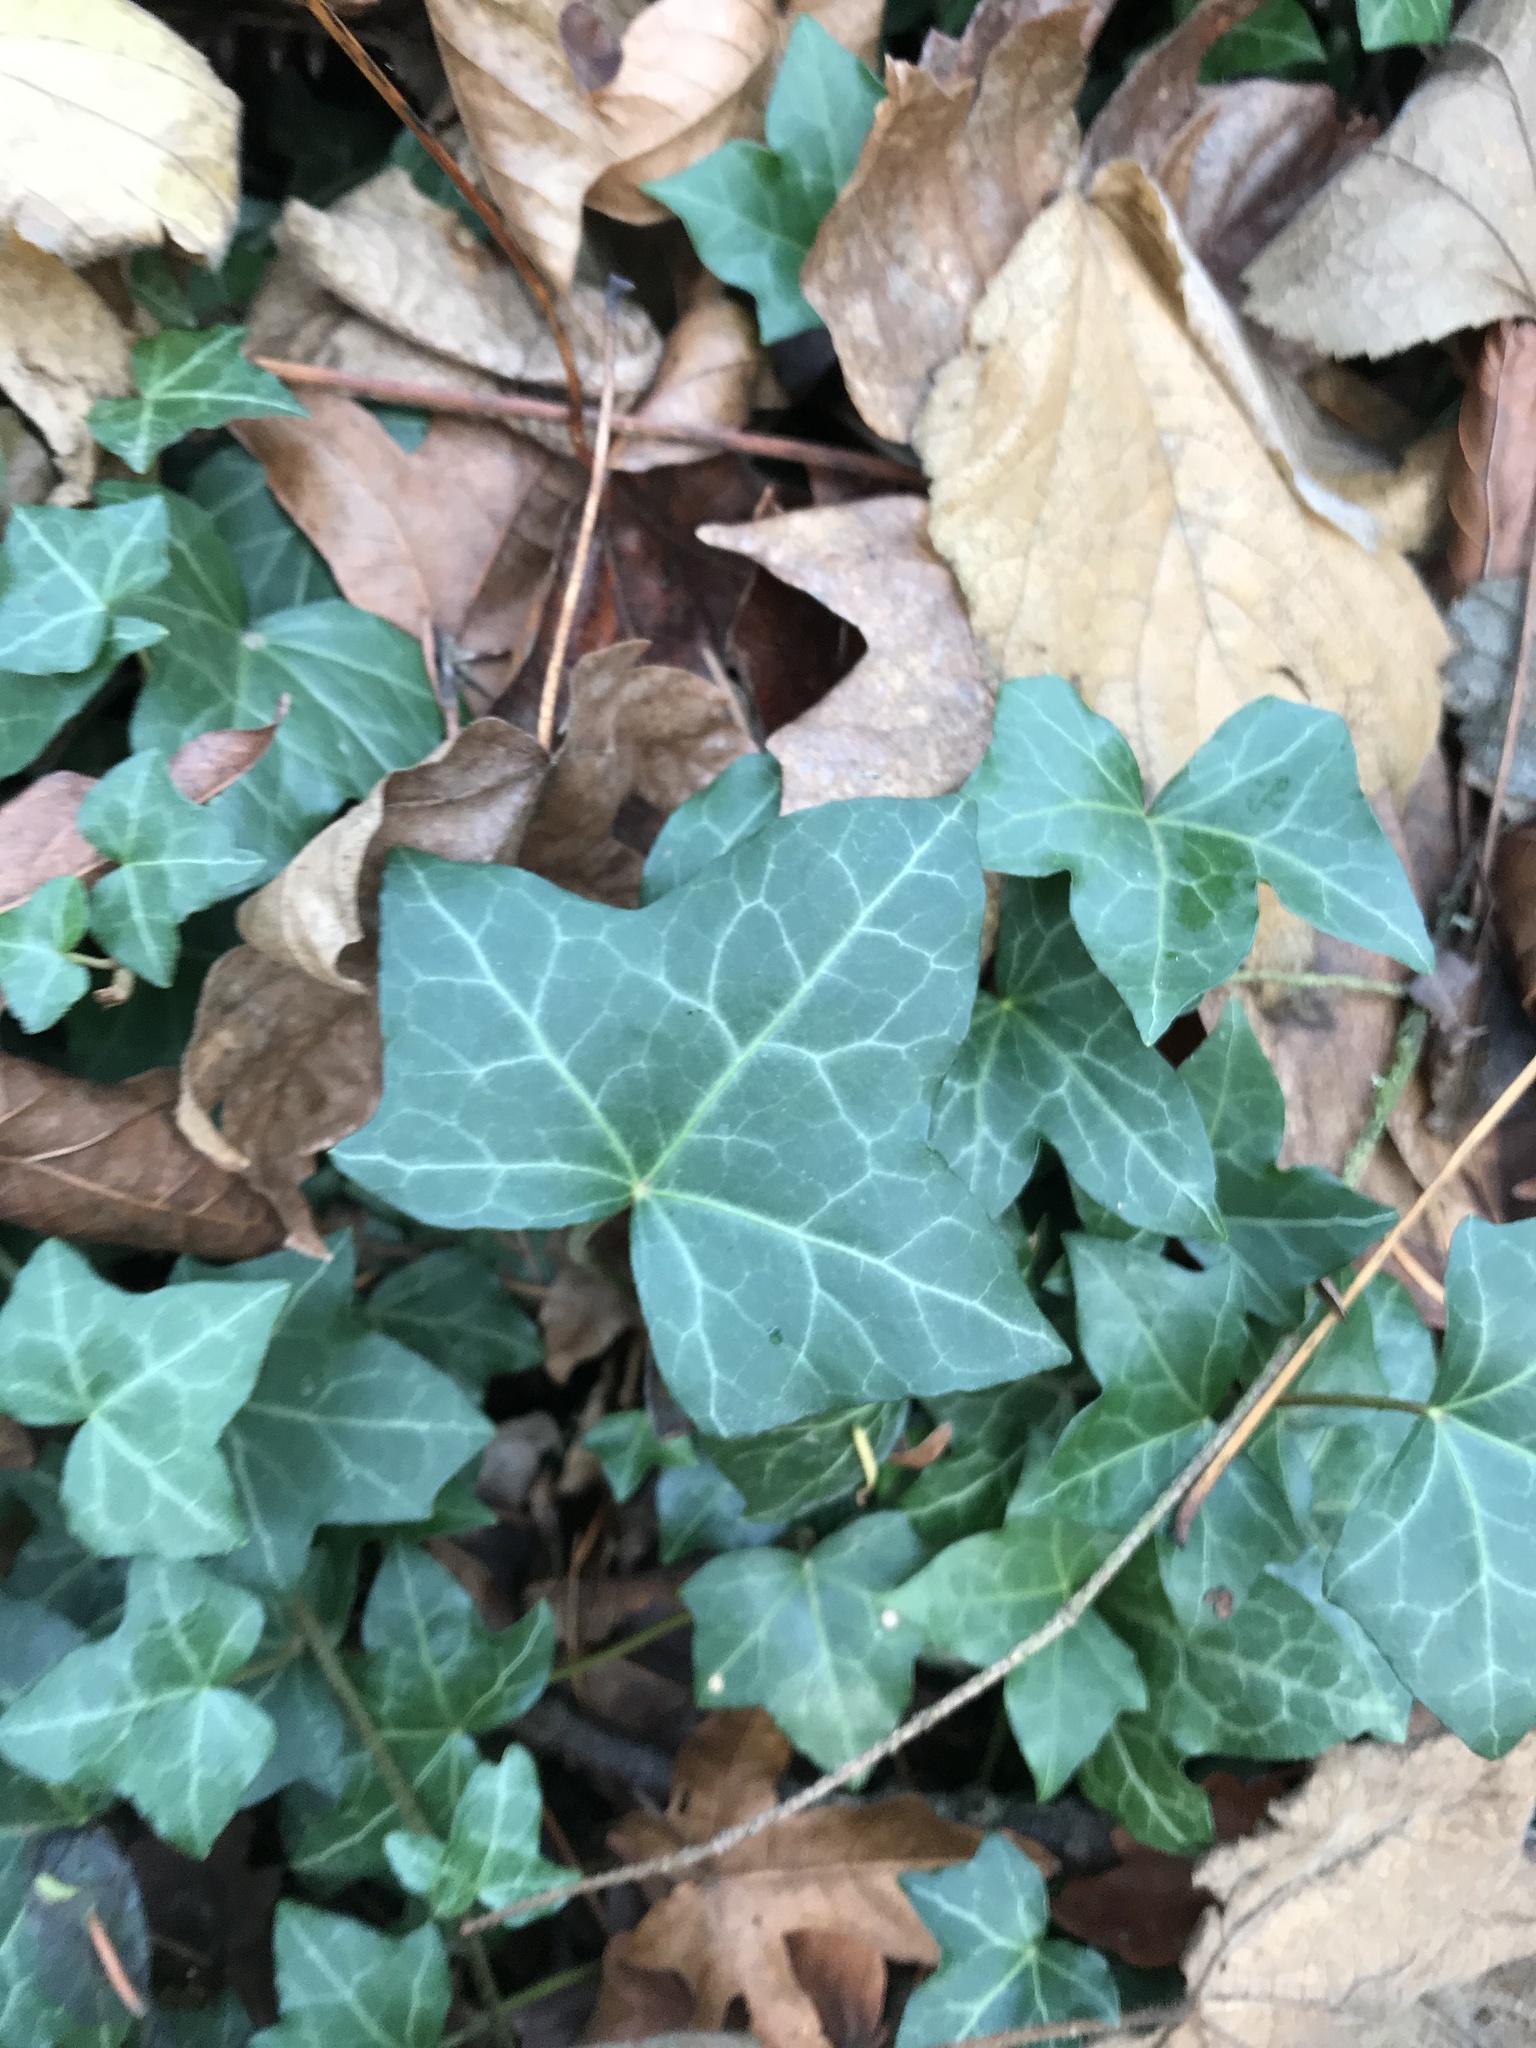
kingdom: Plantae
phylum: Tracheophyta
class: Magnoliopsida
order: Apiales
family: Araliaceae
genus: Hedera
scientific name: Hedera helix
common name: Ivy
